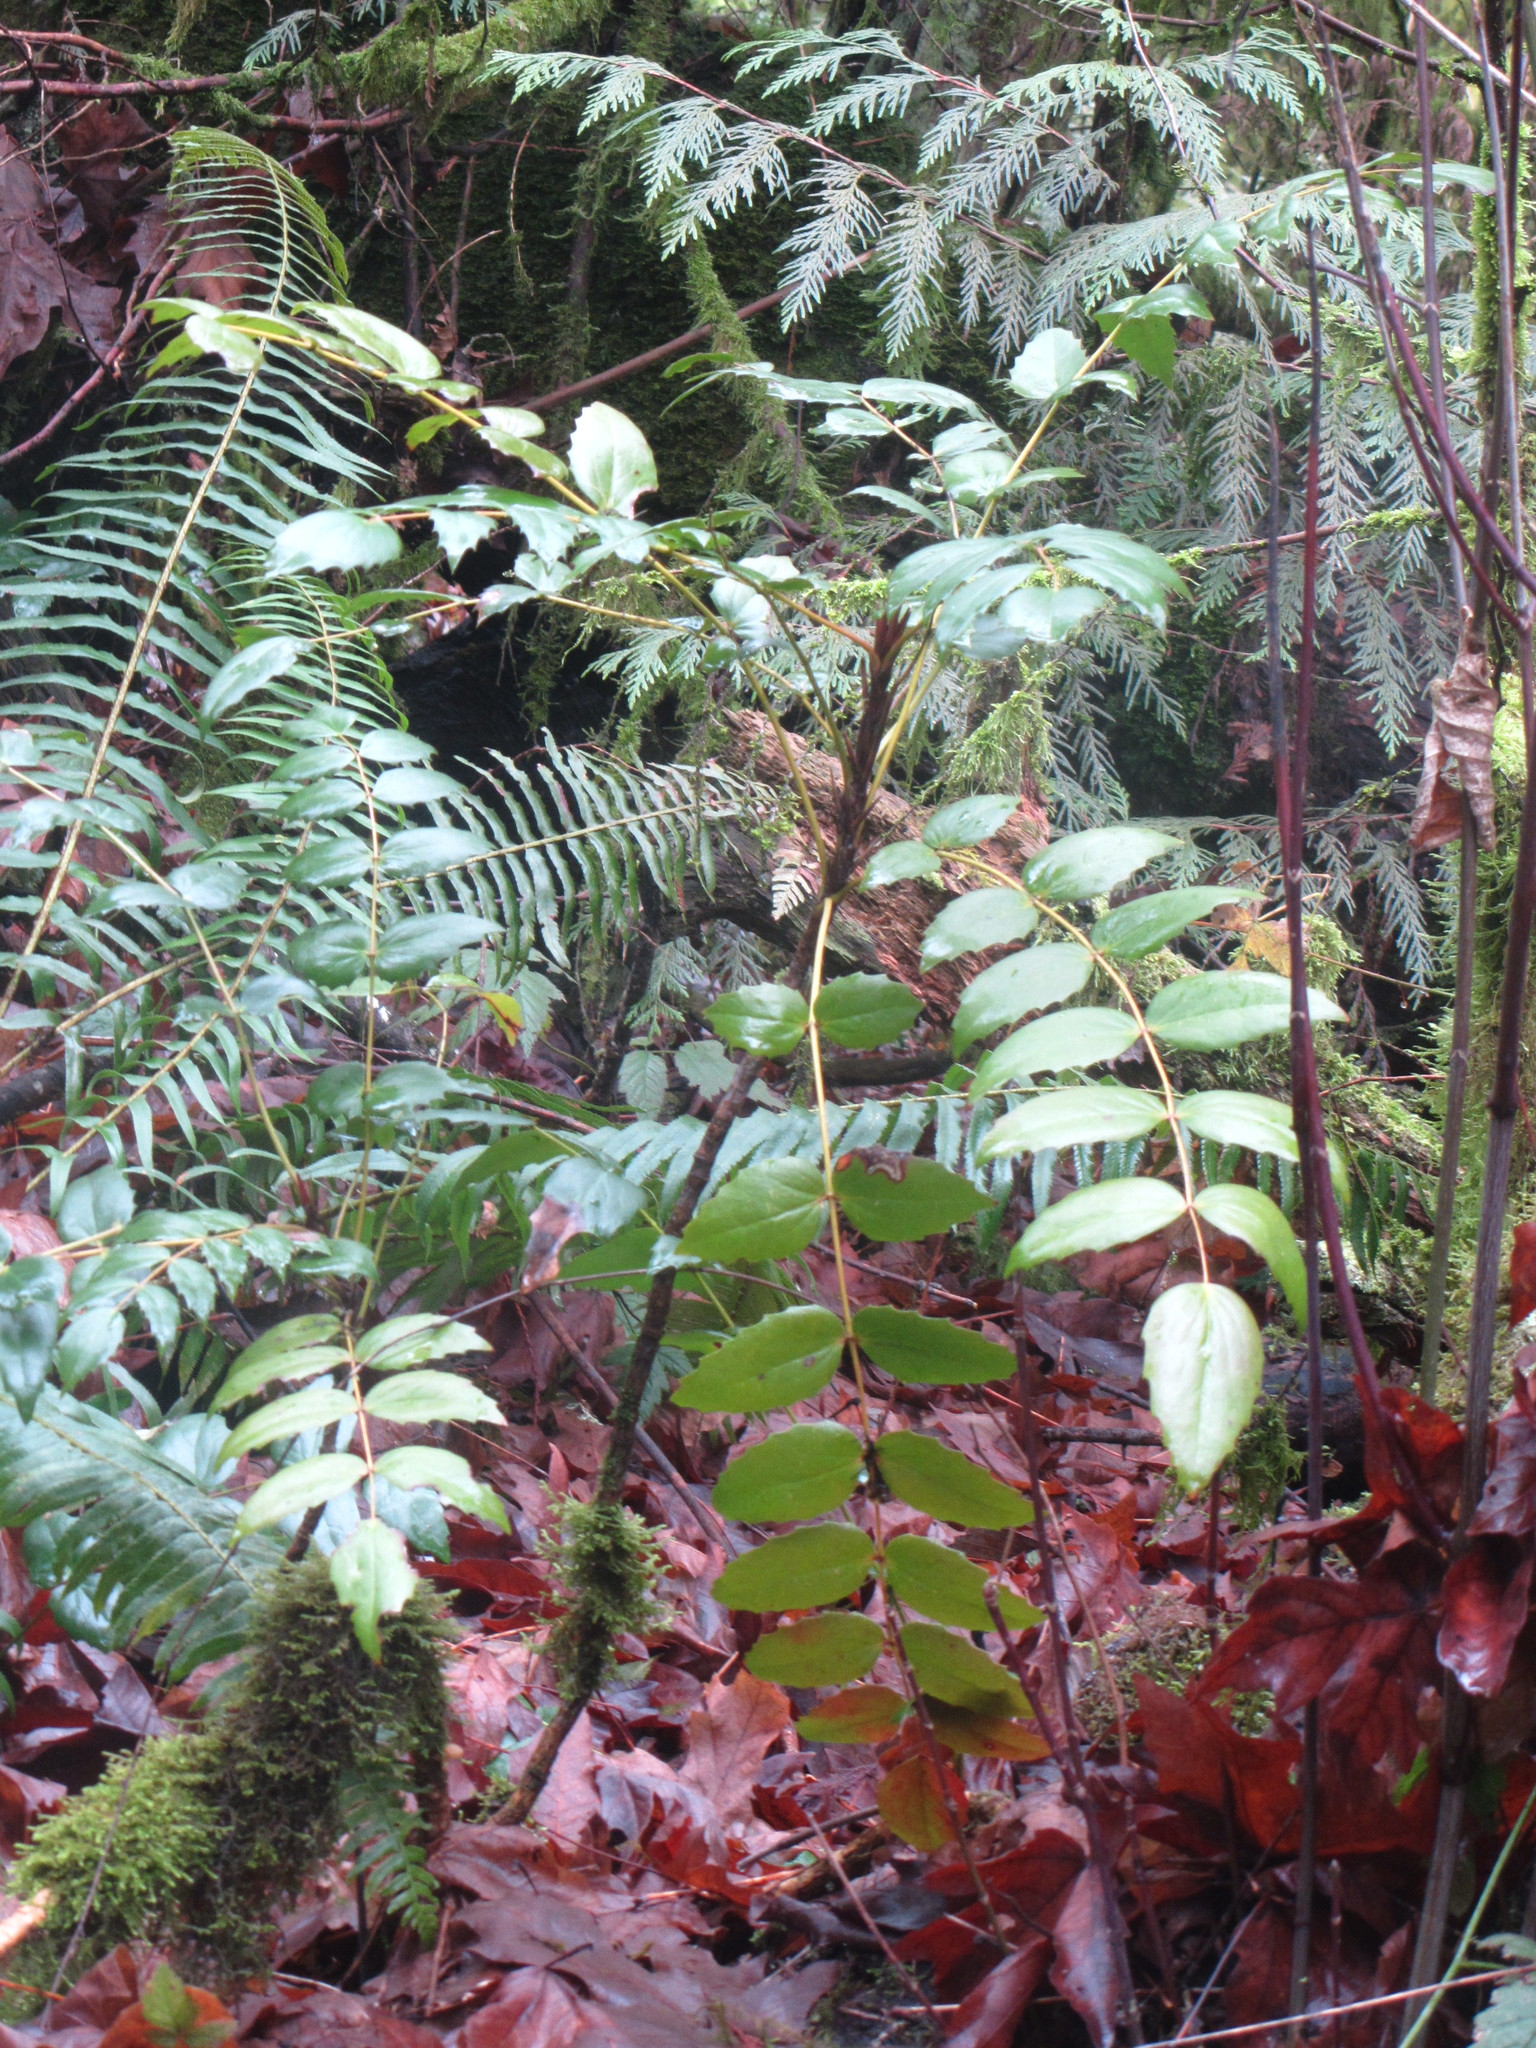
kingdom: Plantae
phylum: Tracheophyta
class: Magnoliopsida
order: Ranunculales
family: Berberidaceae
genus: Mahonia
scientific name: Mahonia nervosa
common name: Cascade oregon-grape
